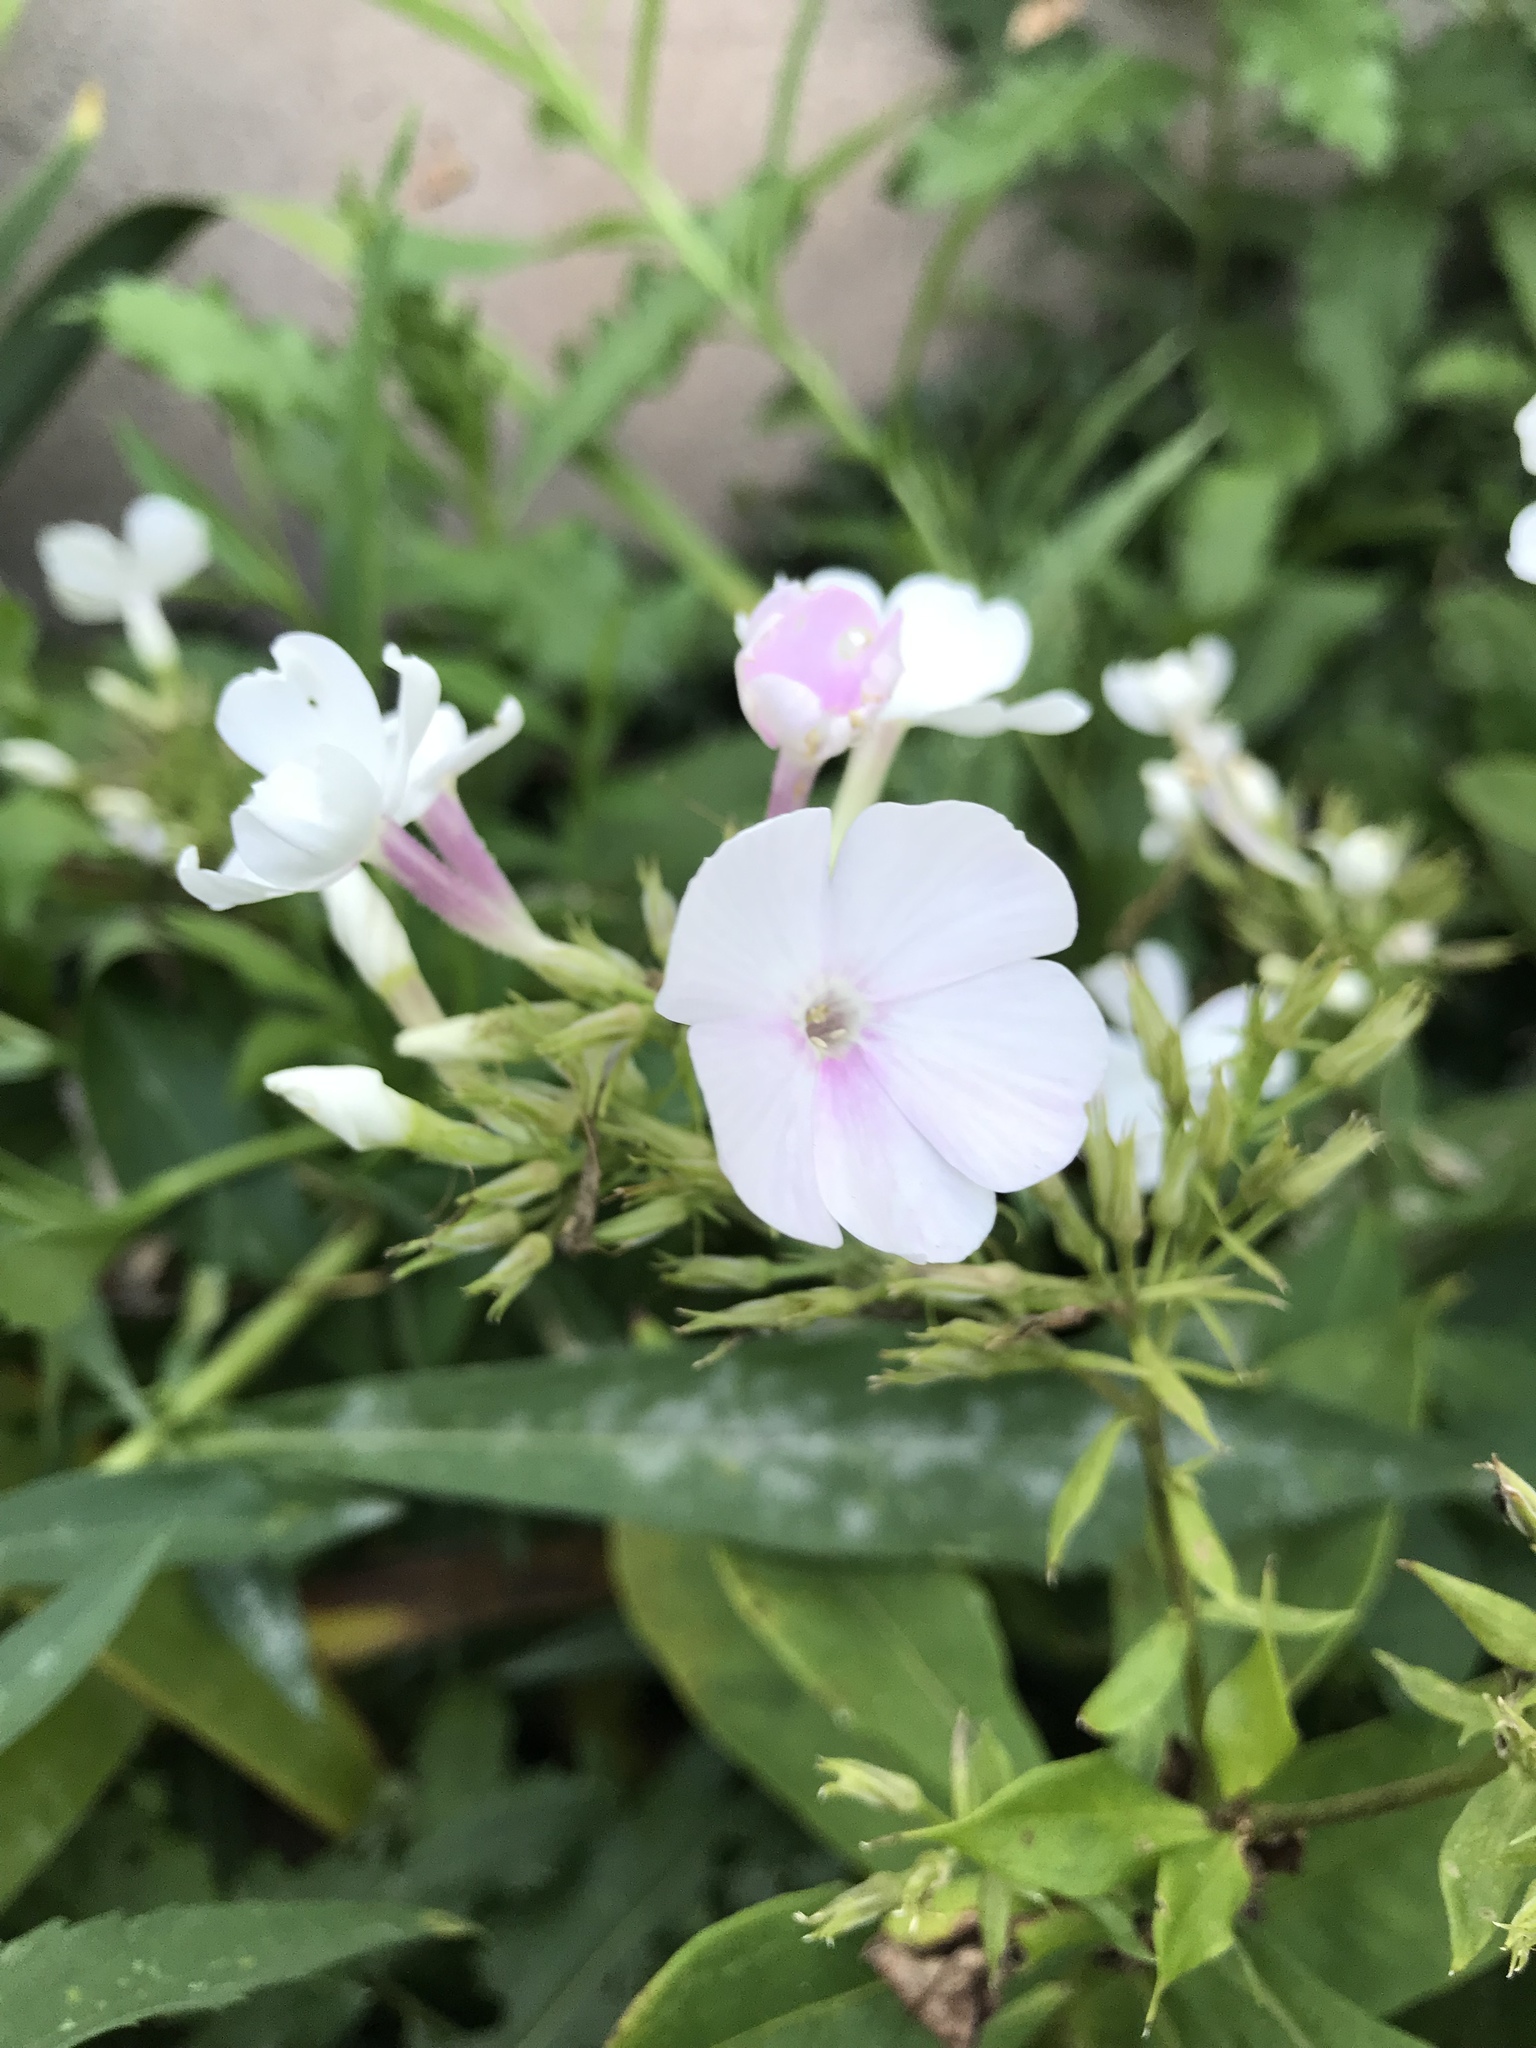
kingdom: Plantae
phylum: Tracheophyta
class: Magnoliopsida
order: Ericales
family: Polemoniaceae
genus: Phlox
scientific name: Phlox paniculata
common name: Fall phlox
